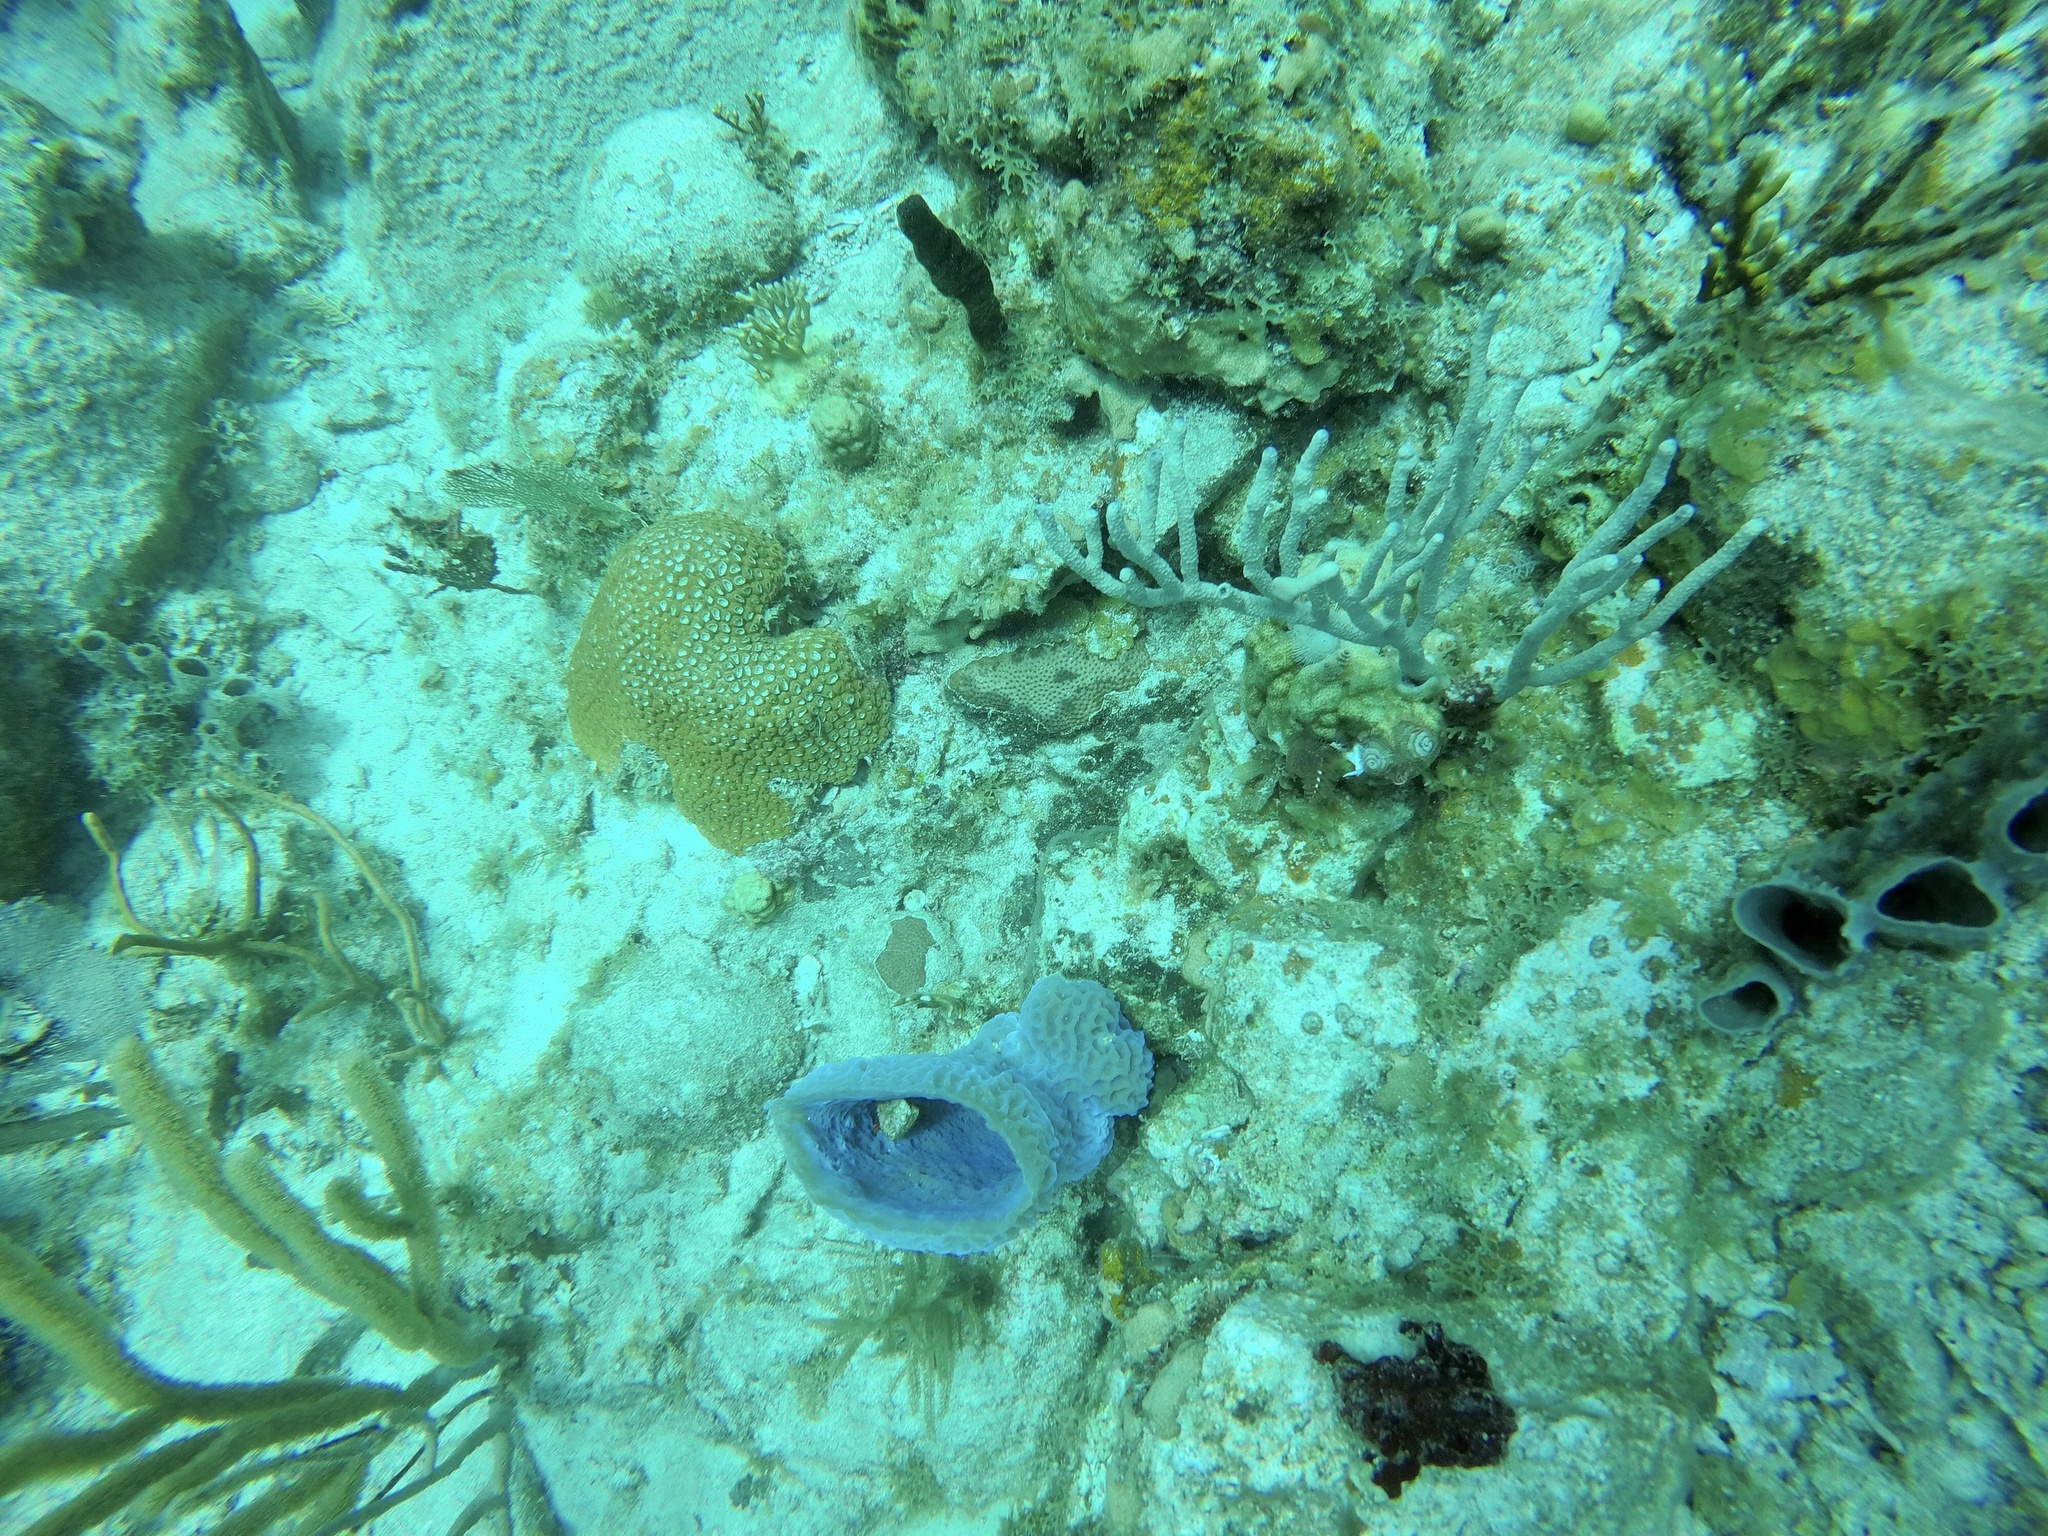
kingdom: Animalia
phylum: Porifera
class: Demospongiae
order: Haplosclerida
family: Callyspongiidae
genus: Callyspongia
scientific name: Callyspongia plicifera
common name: Azure vase sponge
